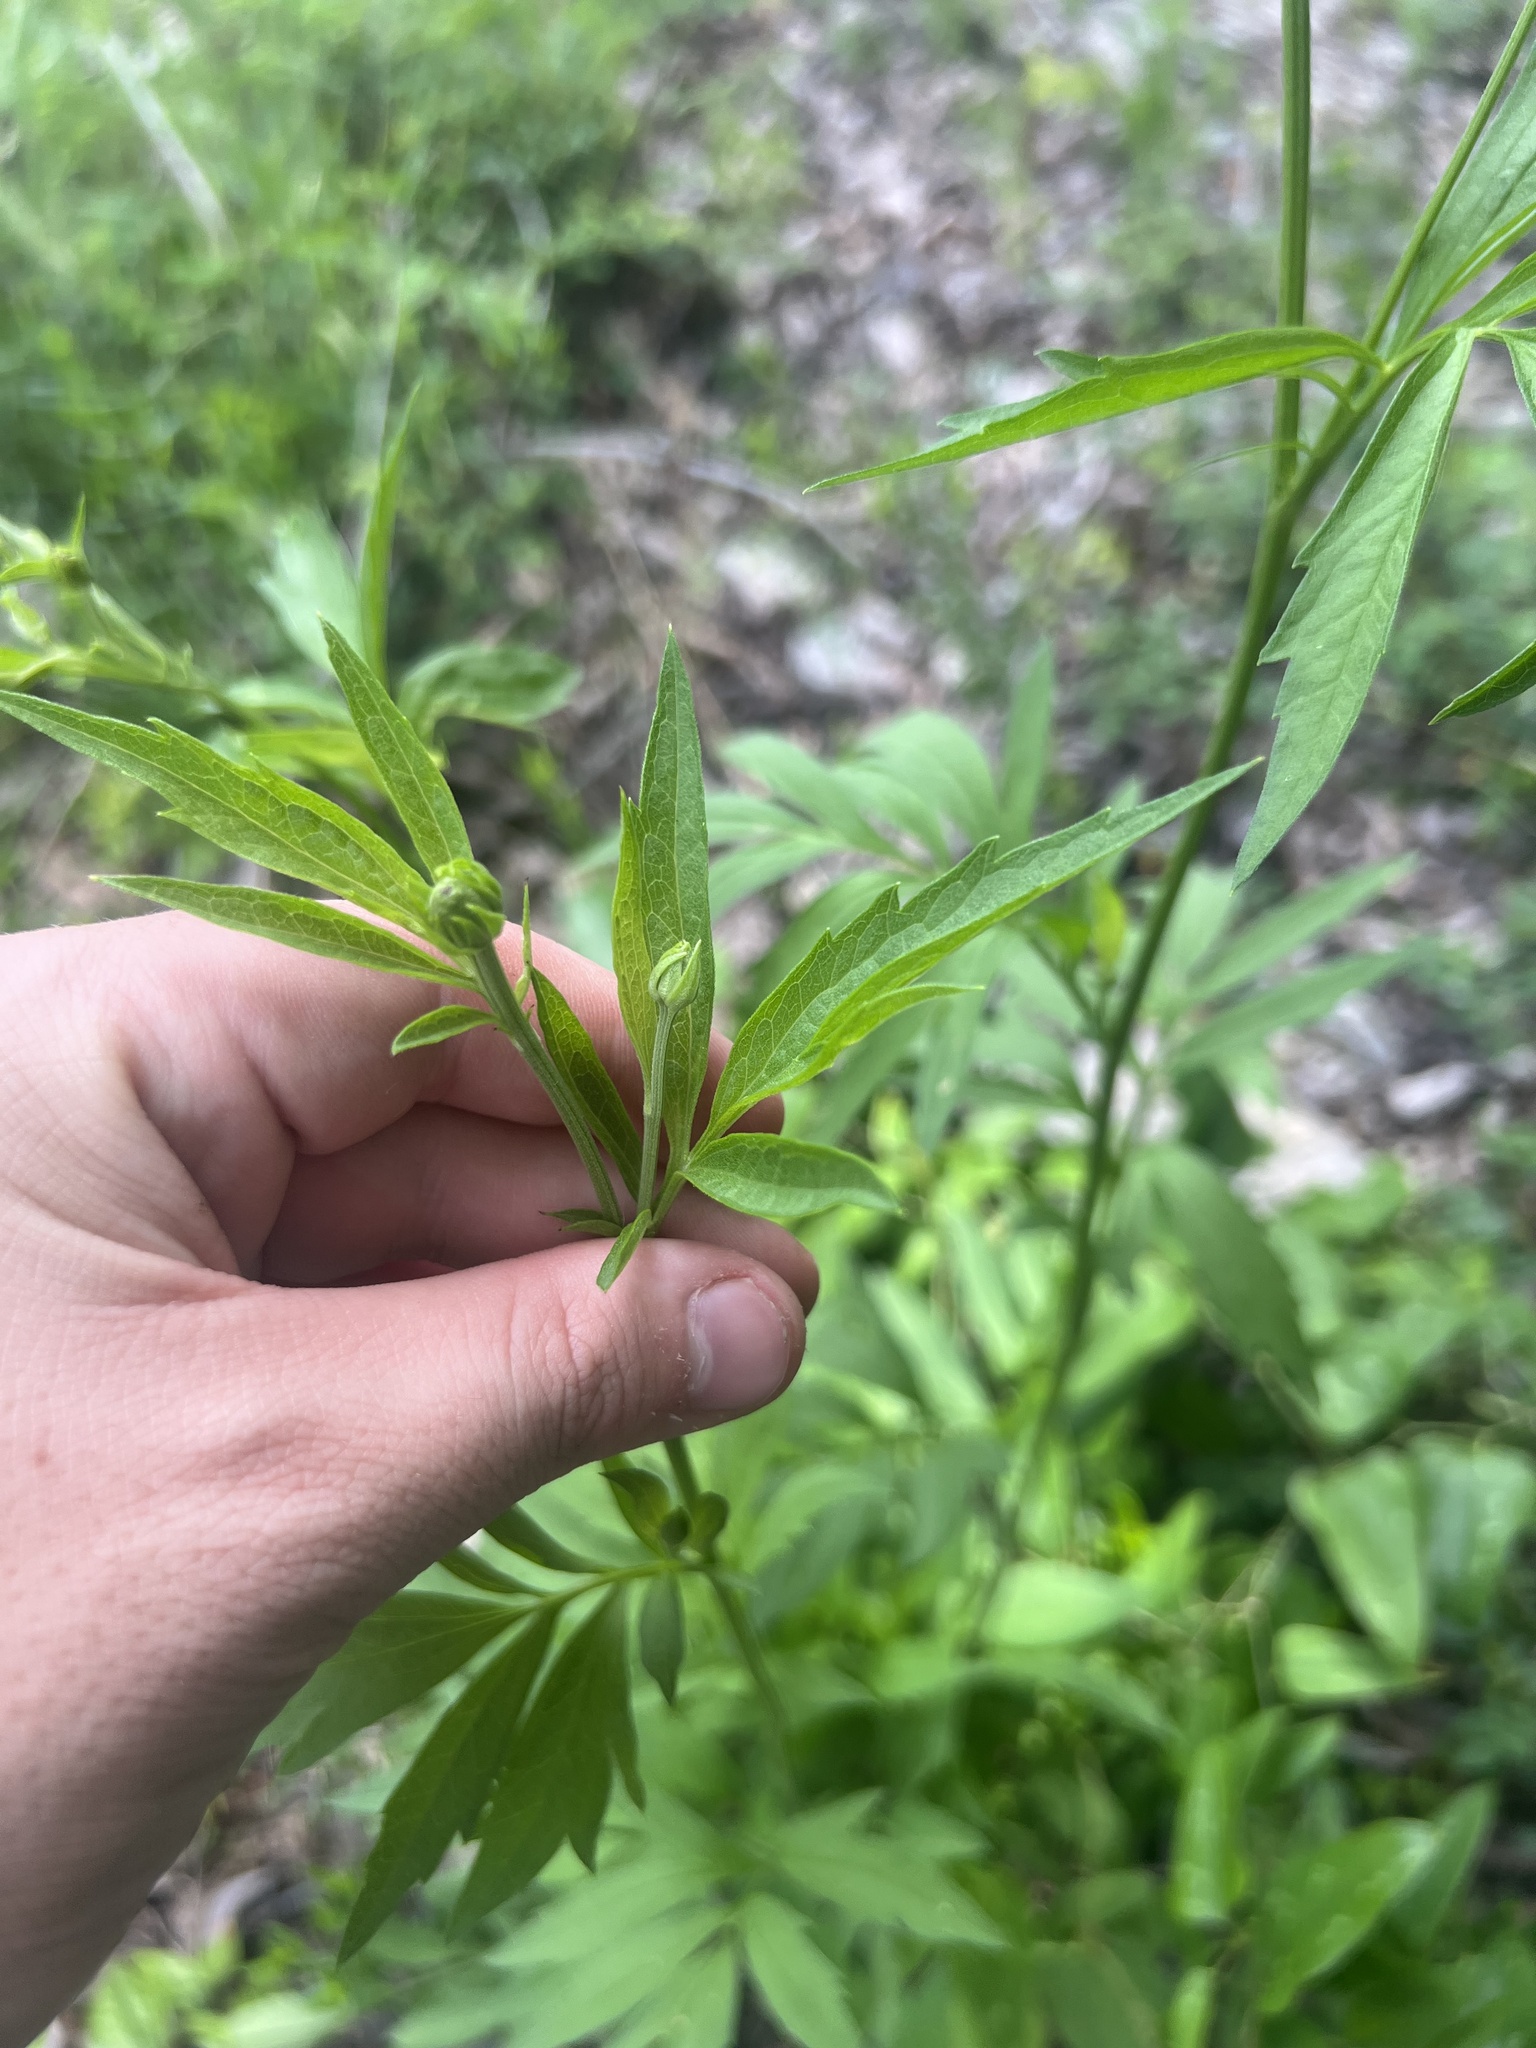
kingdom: Plantae
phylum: Tracheophyta
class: Magnoliopsida
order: Asterales
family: Asteraceae
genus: Ratibida
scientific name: Ratibida pinnata
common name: Drooping prairie-coneflower
